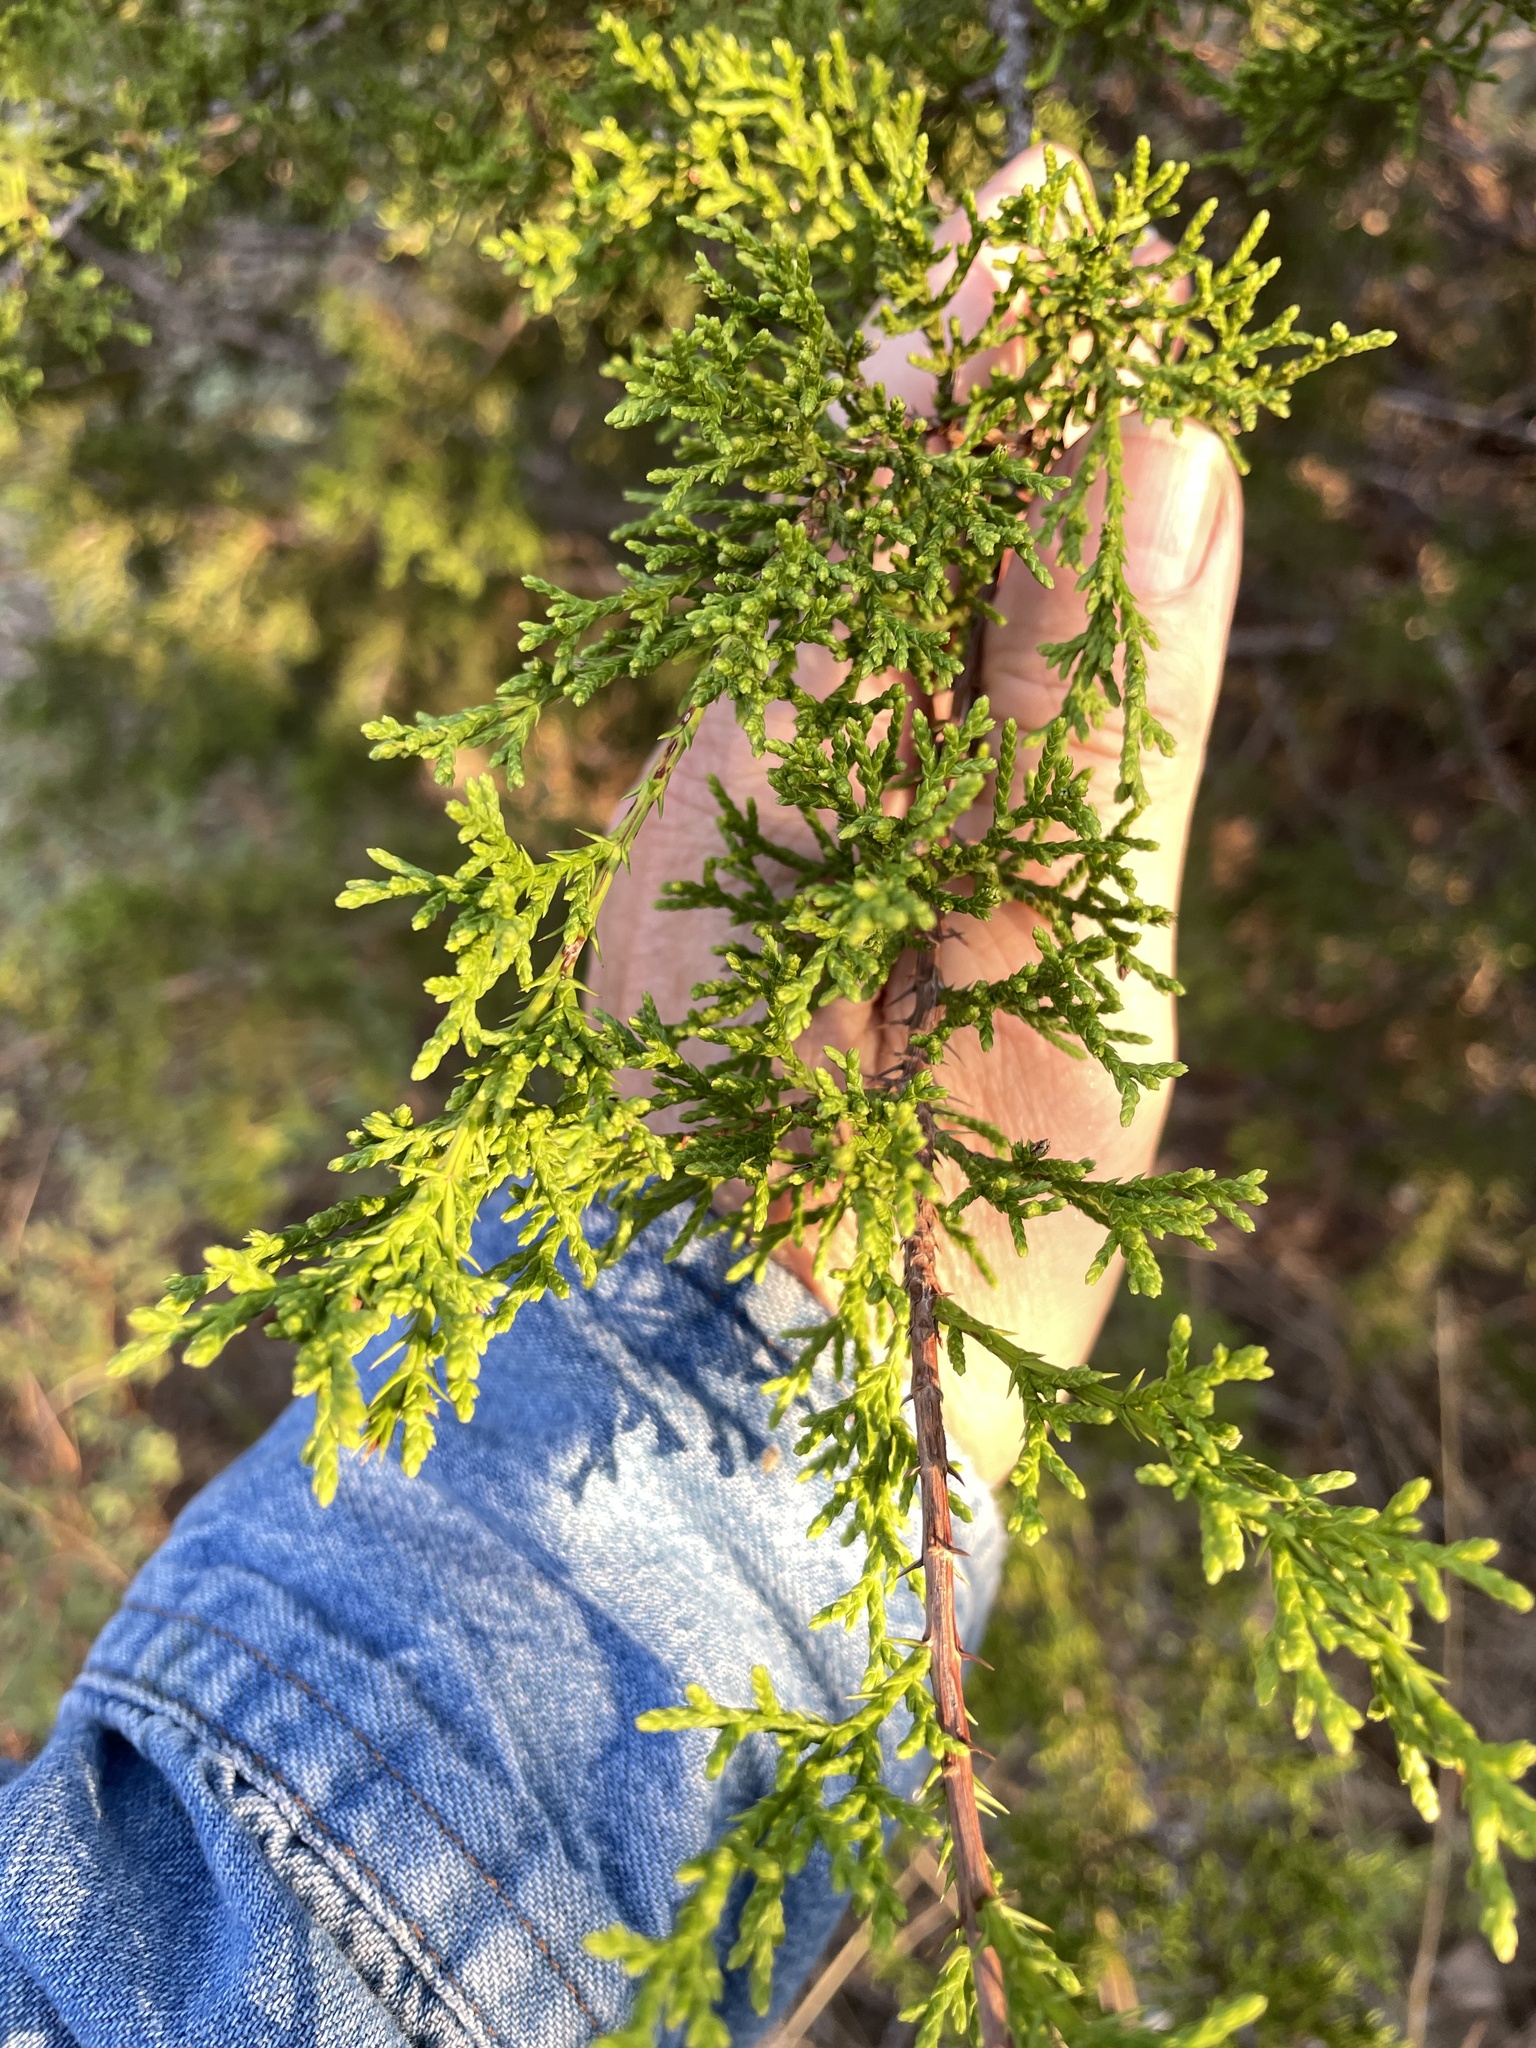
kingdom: Plantae
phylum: Tracheophyta
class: Pinopsida
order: Pinales
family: Cupressaceae
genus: Juniperus
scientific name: Juniperus ashei
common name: Mexican juniper
